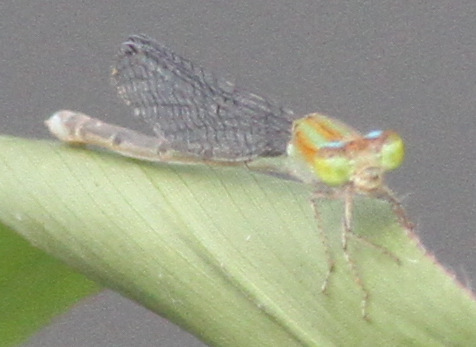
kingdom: Animalia
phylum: Arthropoda
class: Insecta
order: Odonata
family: Coenagrionidae
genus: Pseudagrion
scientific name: Pseudagrion microcephalum
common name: Blue riverdamsel
